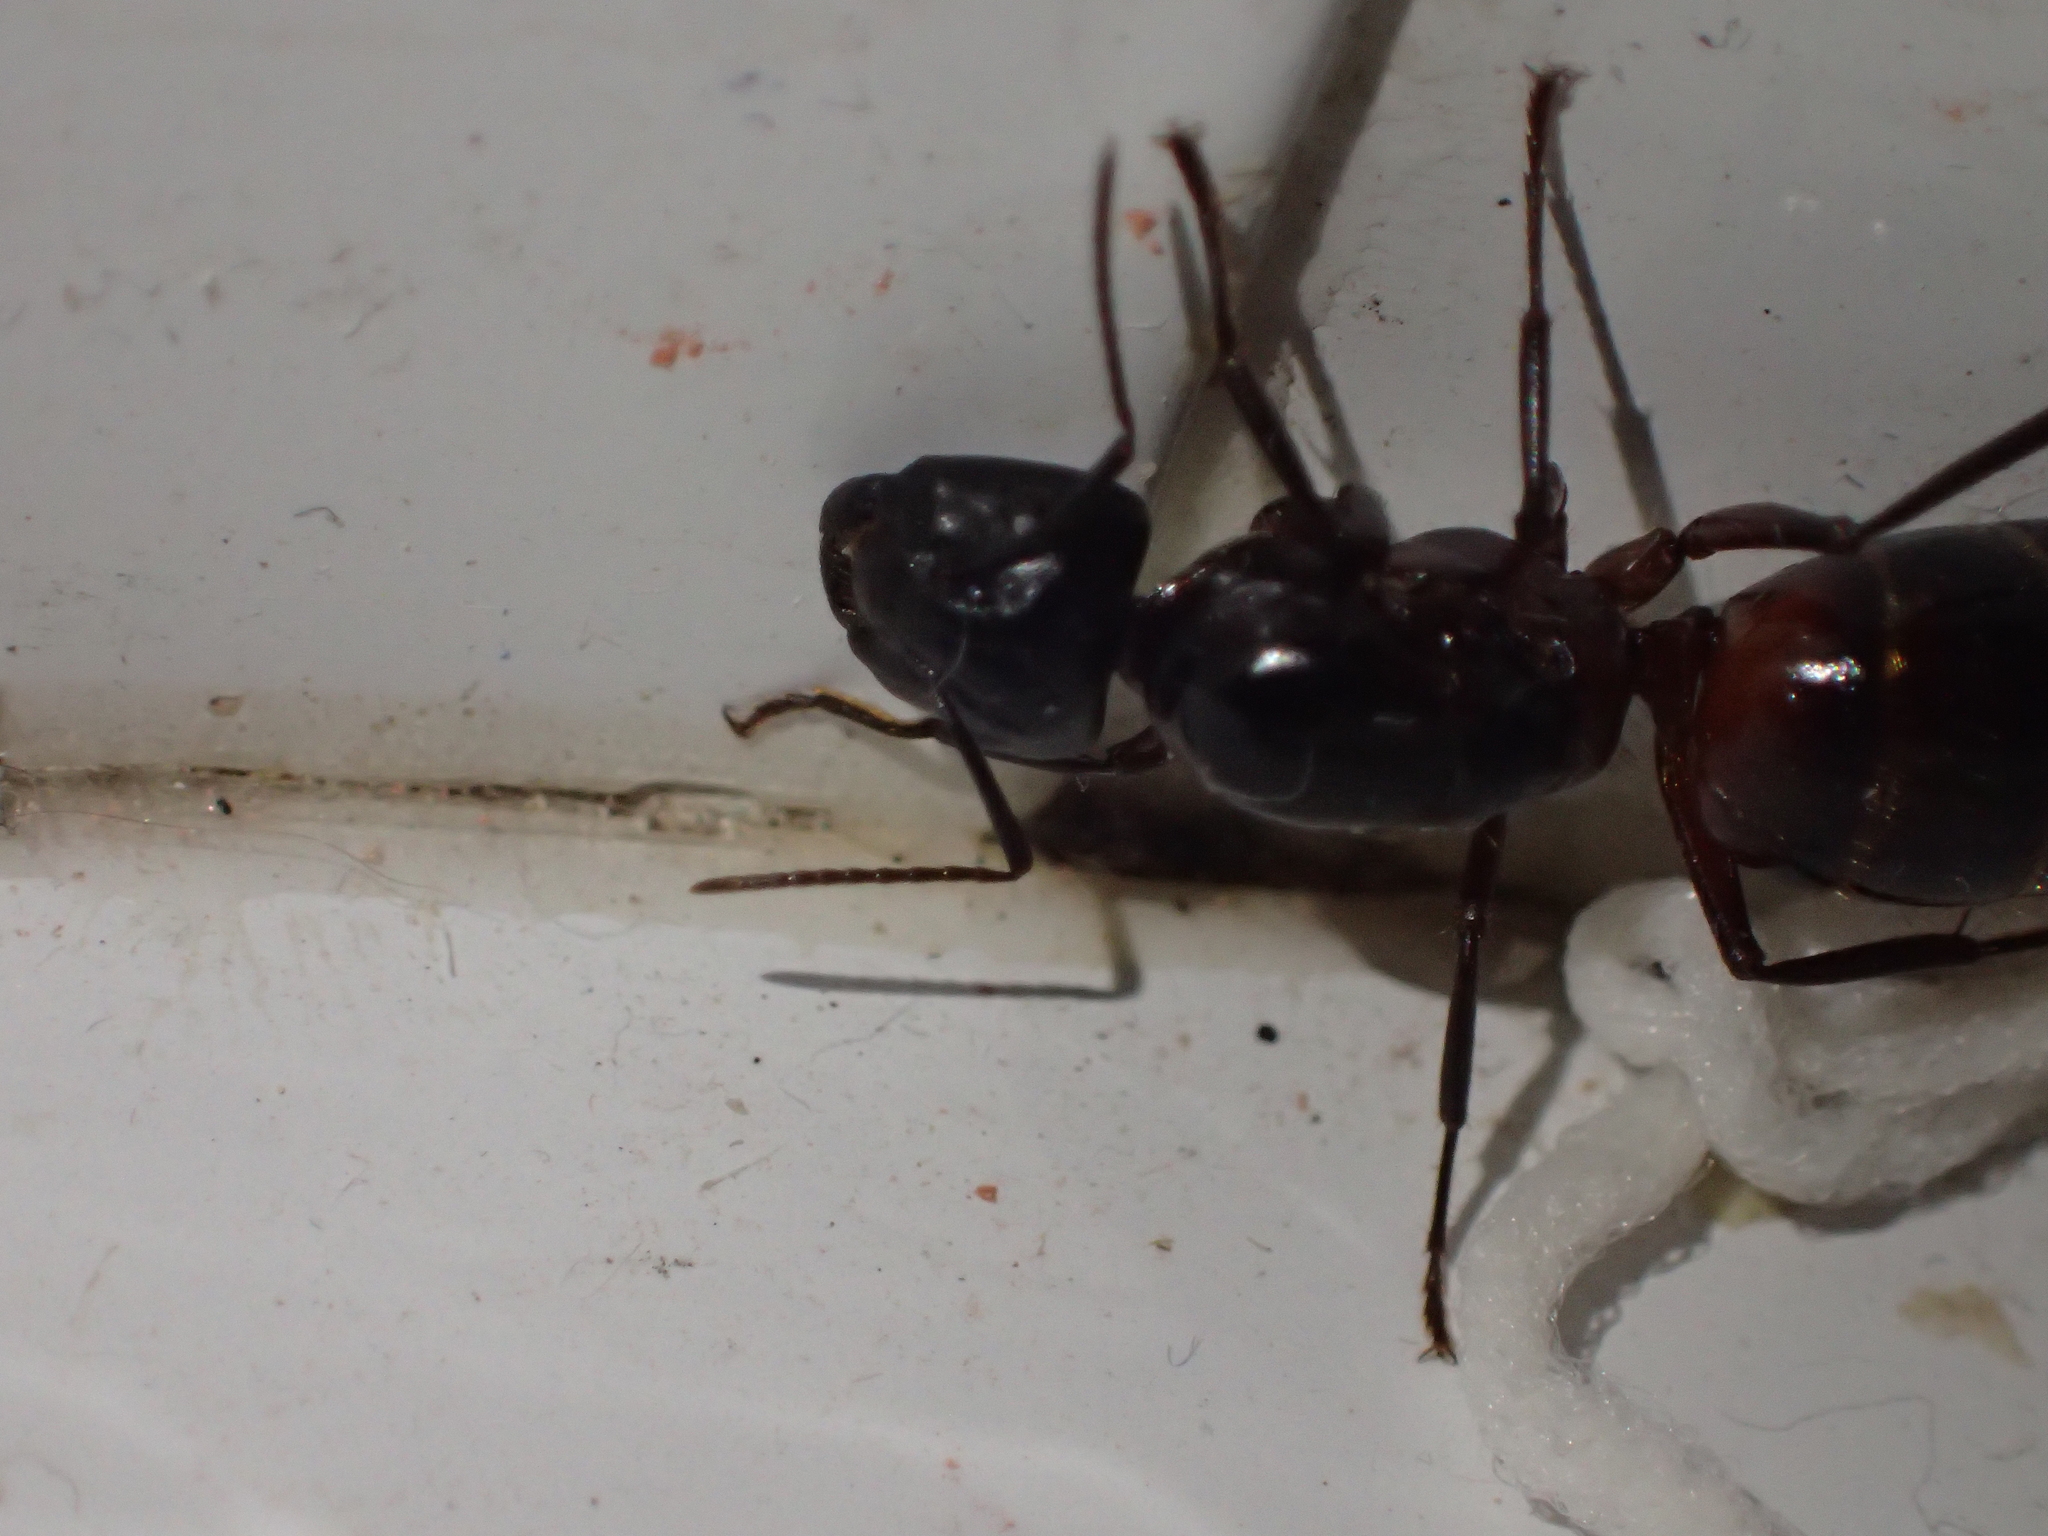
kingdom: Animalia
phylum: Arthropoda
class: Insecta
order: Hymenoptera
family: Formicidae
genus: Camponotus
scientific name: Camponotus ligniperdus
